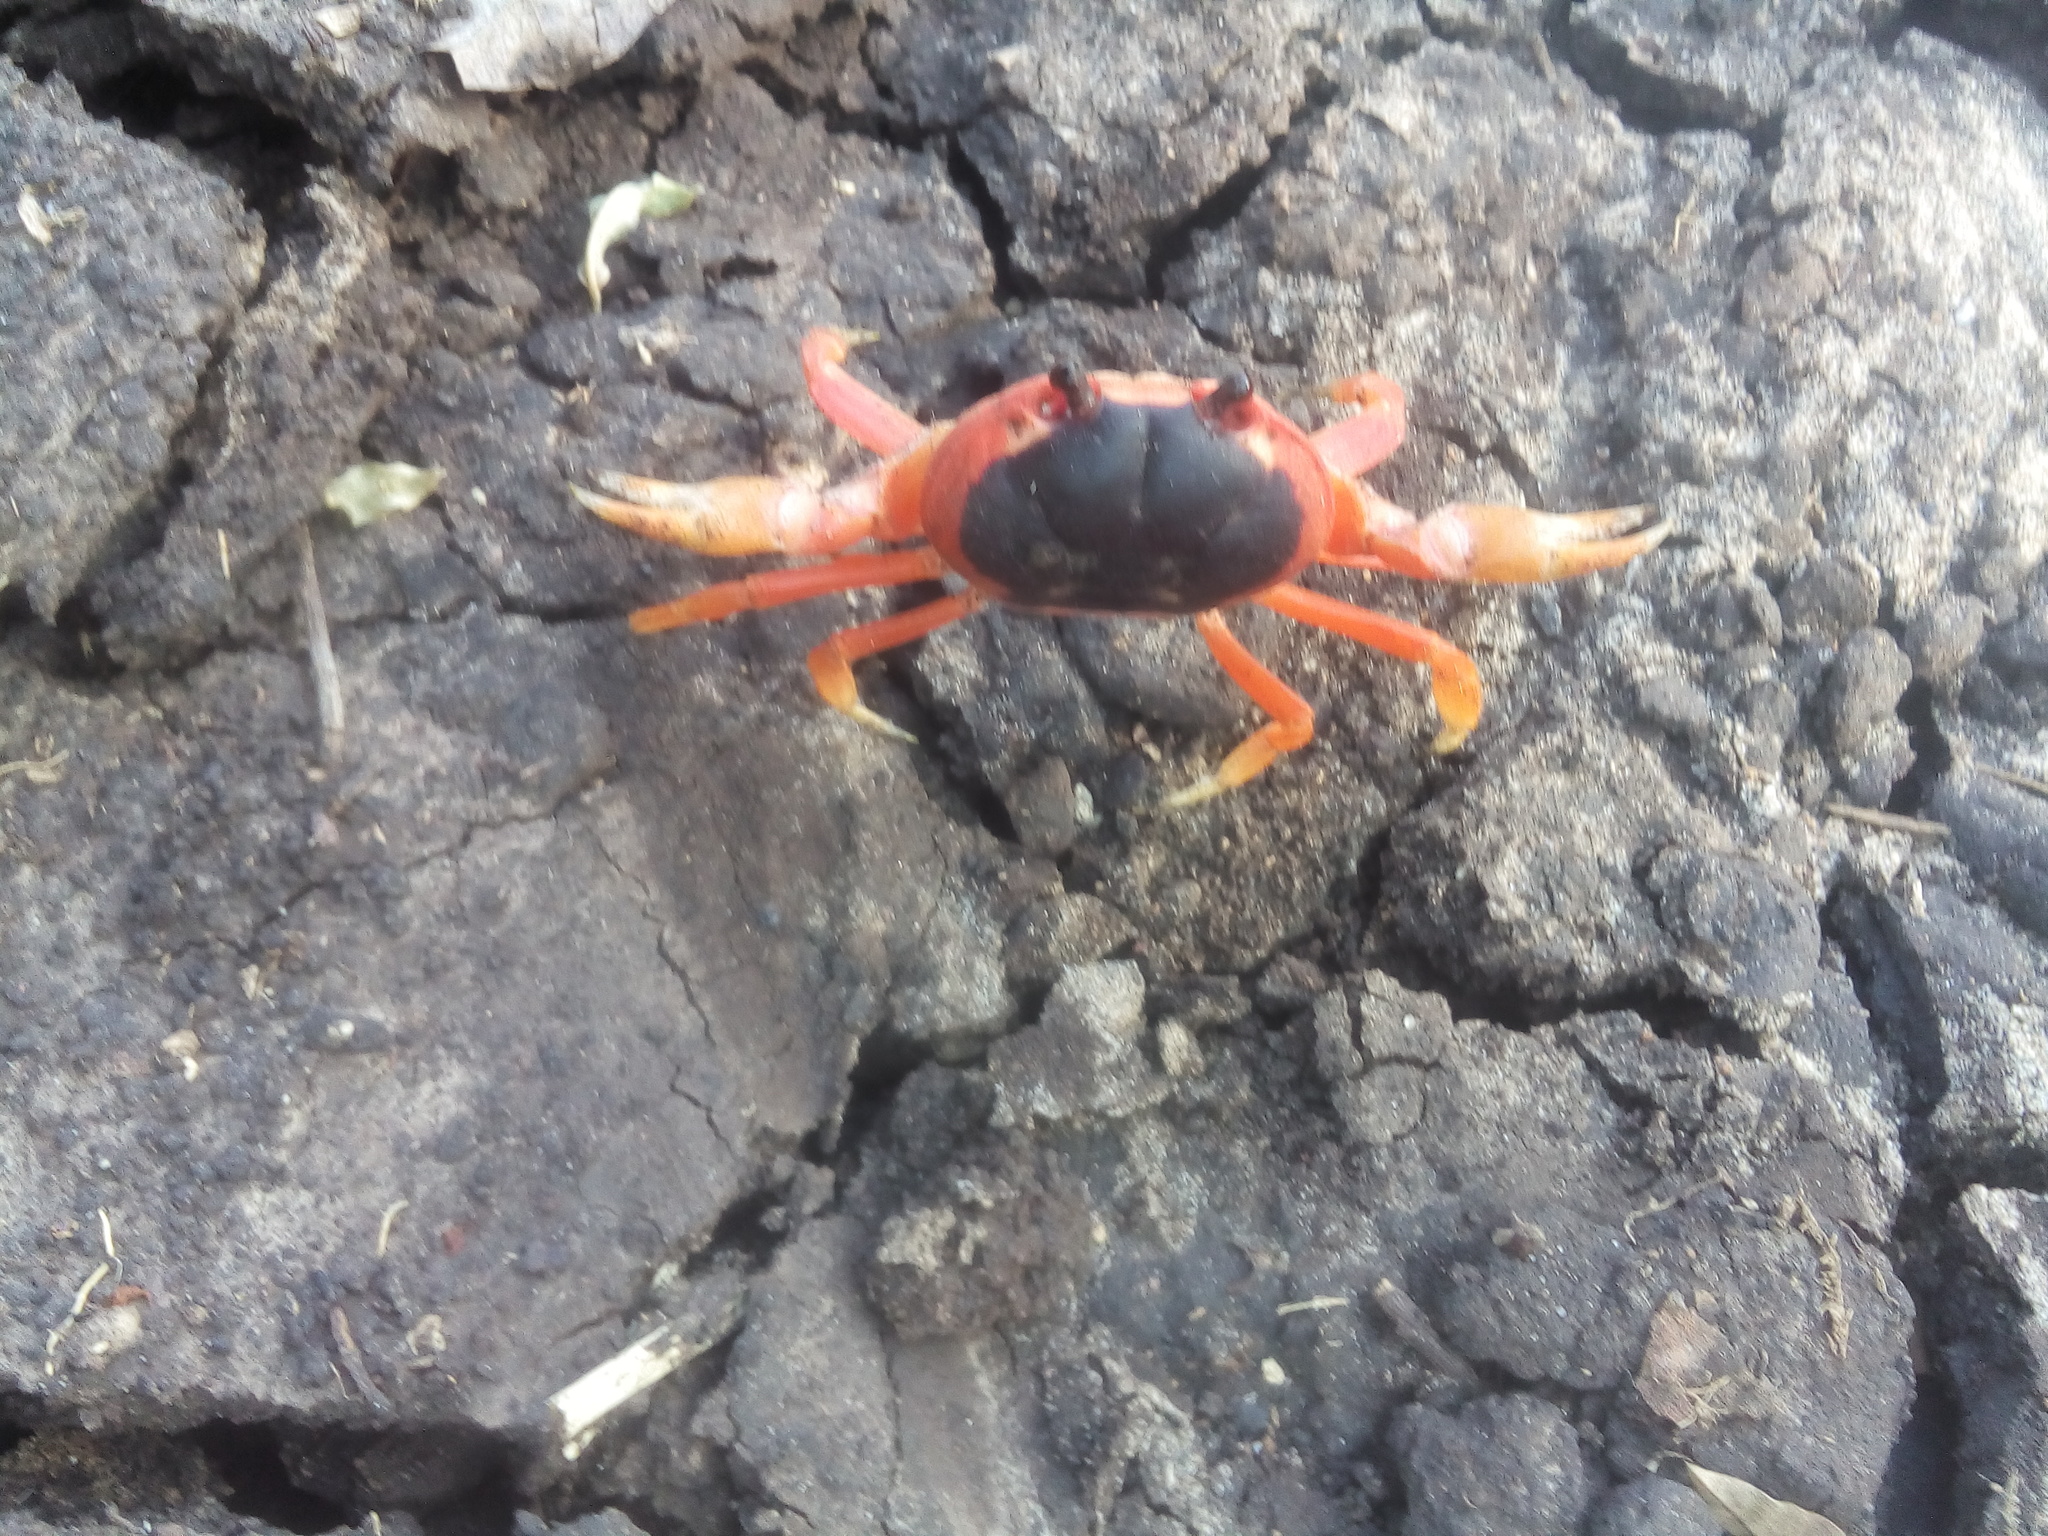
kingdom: Animalia
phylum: Arthropoda
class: Malacostraca
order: Decapoda
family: Gecarcinidae
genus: Gecarcinus
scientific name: Gecarcinus lateralis
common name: Bermuda land crab
